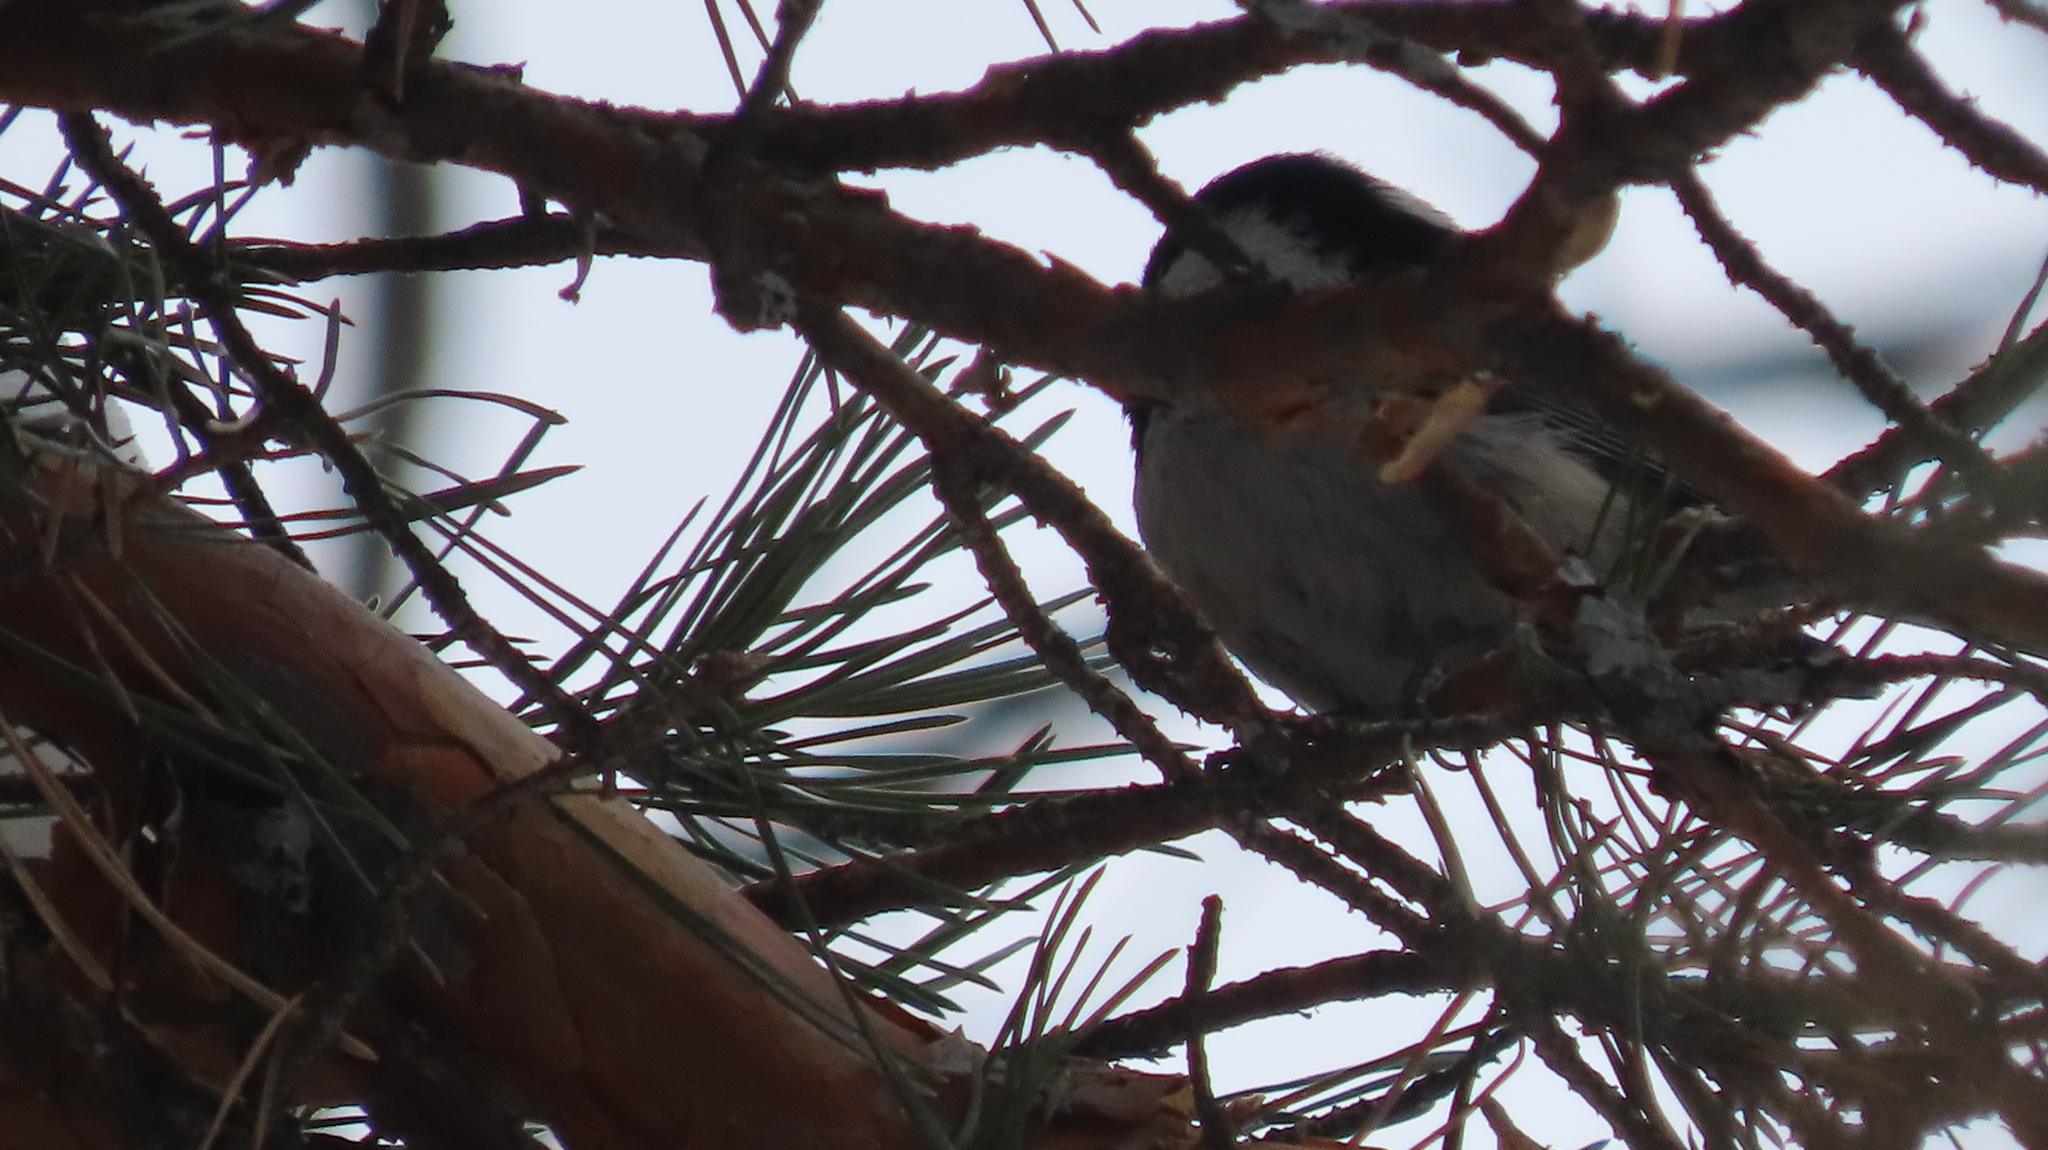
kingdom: Animalia
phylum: Chordata
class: Aves
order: Passeriformes
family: Paridae
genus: Periparus
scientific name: Periparus ater
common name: Coal tit
